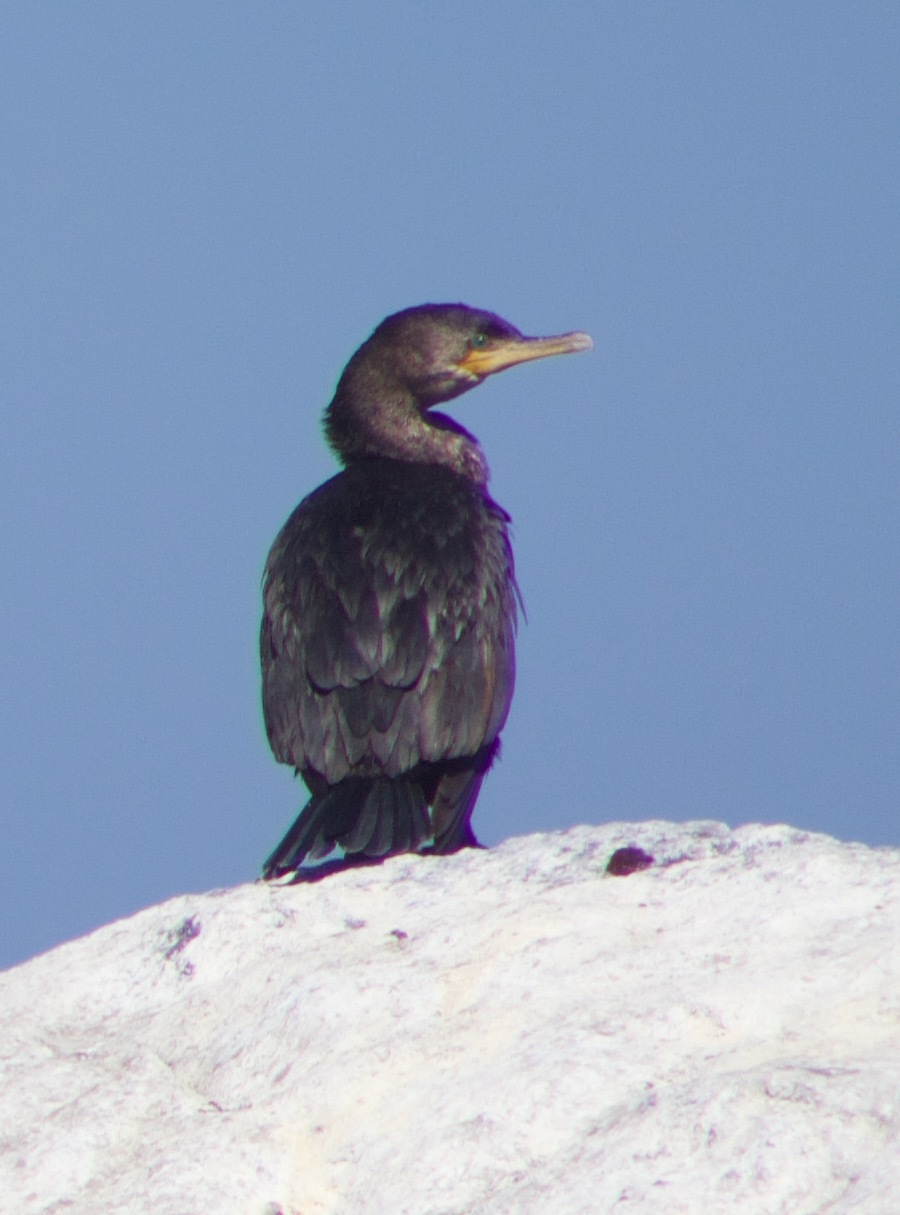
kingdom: Animalia
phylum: Chordata
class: Aves
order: Suliformes
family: Phalacrocoracidae
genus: Phalacrocorax
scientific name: Phalacrocorax brasilianus
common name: Neotropic cormorant
